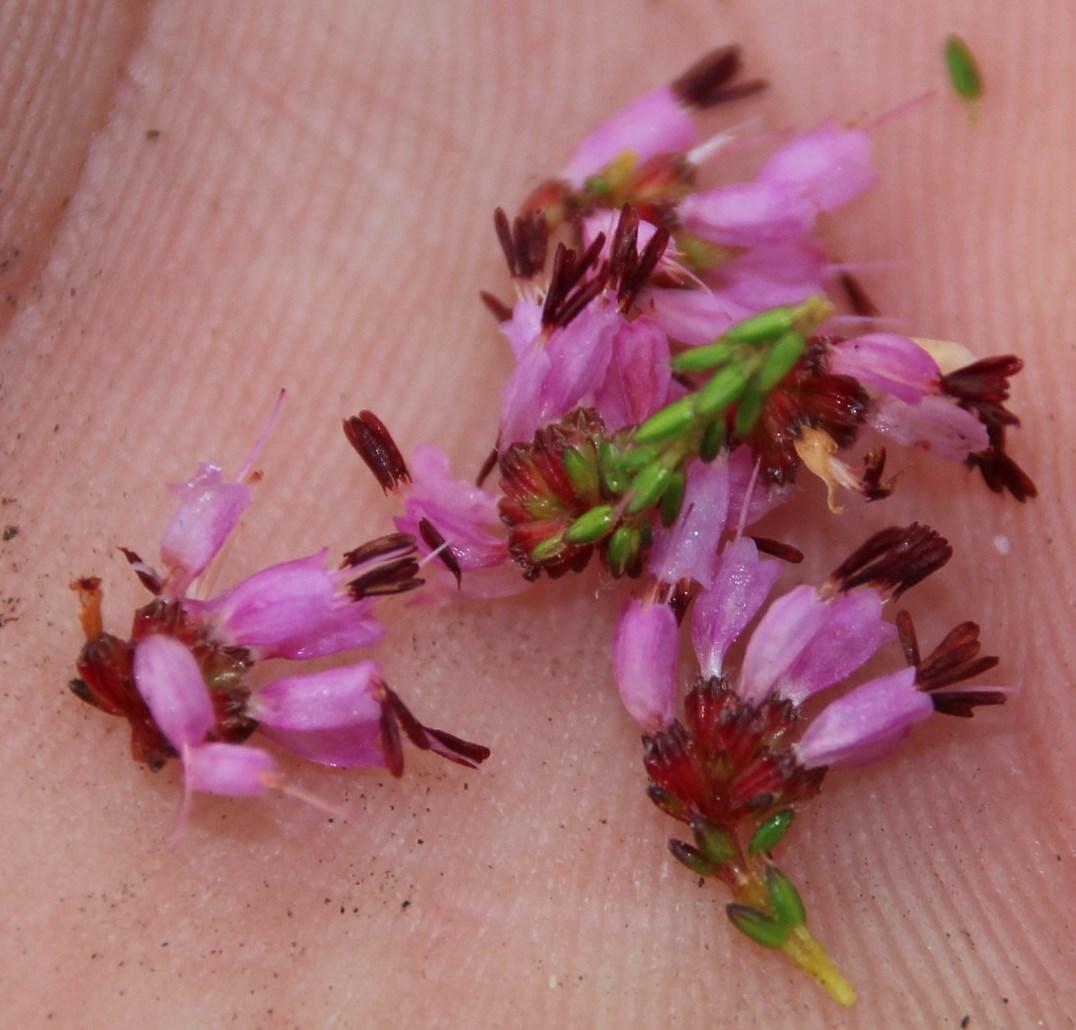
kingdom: Plantae
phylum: Tracheophyta
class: Magnoliopsida
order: Ericales
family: Ericaceae
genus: Erica
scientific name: Erica glabella
